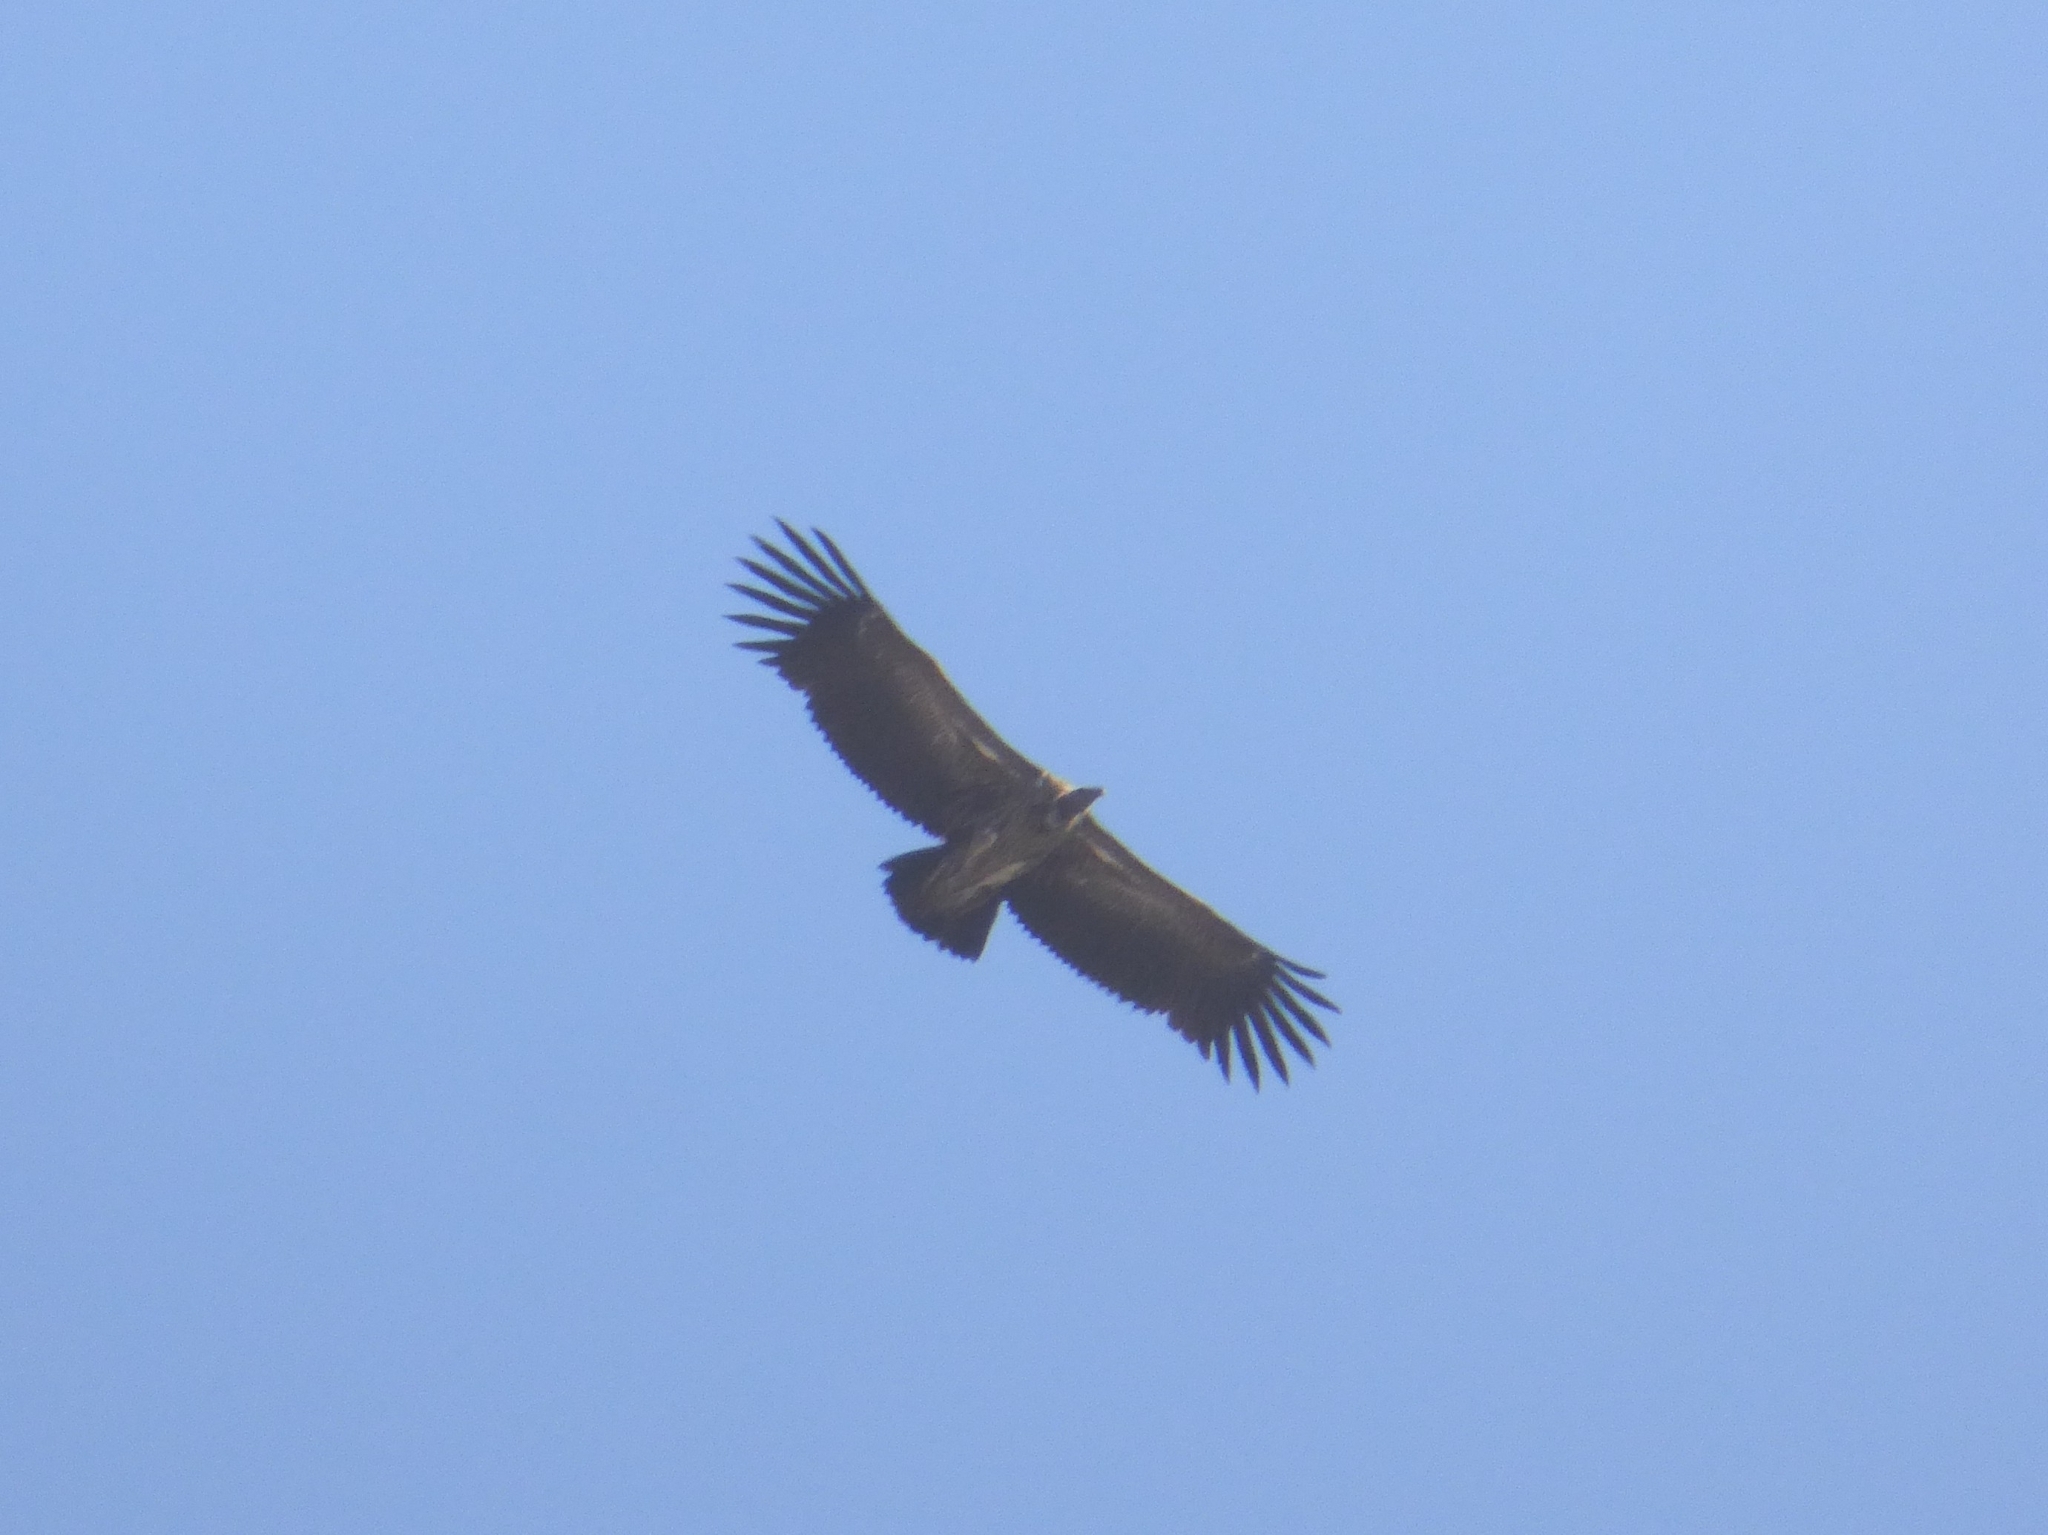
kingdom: Animalia
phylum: Chordata
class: Aves
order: Accipitriformes
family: Accipitridae
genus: Gyps
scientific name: Gyps fulvus
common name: Griffon vulture
